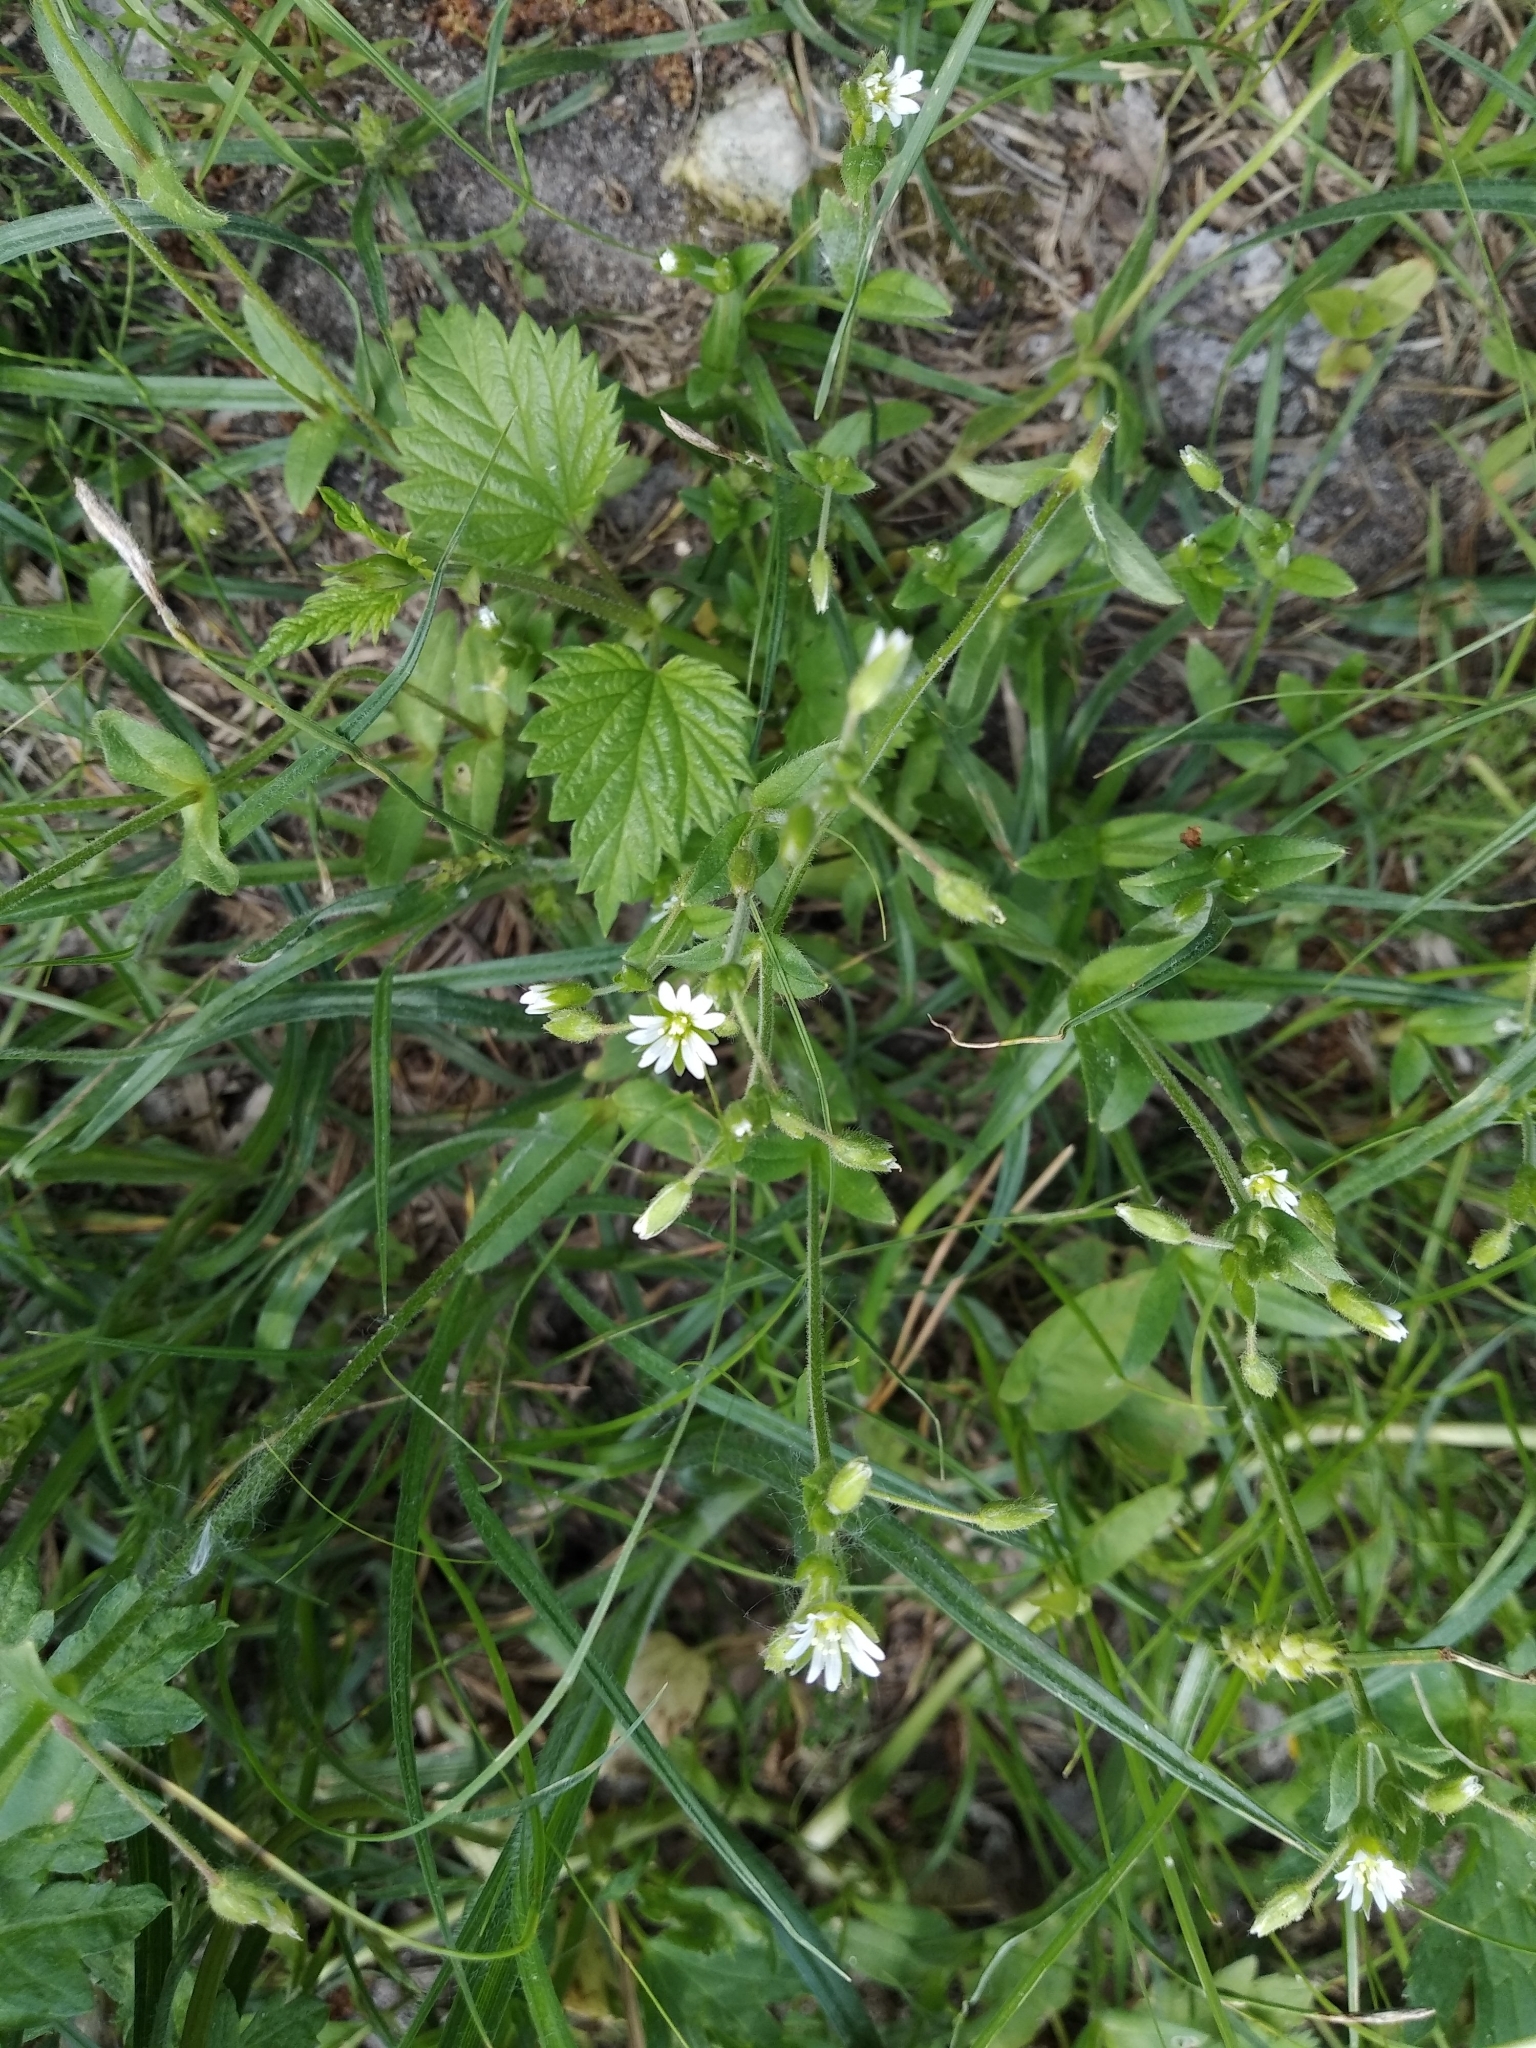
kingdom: Plantae
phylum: Tracheophyta
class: Magnoliopsida
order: Caryophyllales
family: Caryophyllaceae
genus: Cerastium
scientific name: Cerastium holosteoides
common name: Big chickweed
